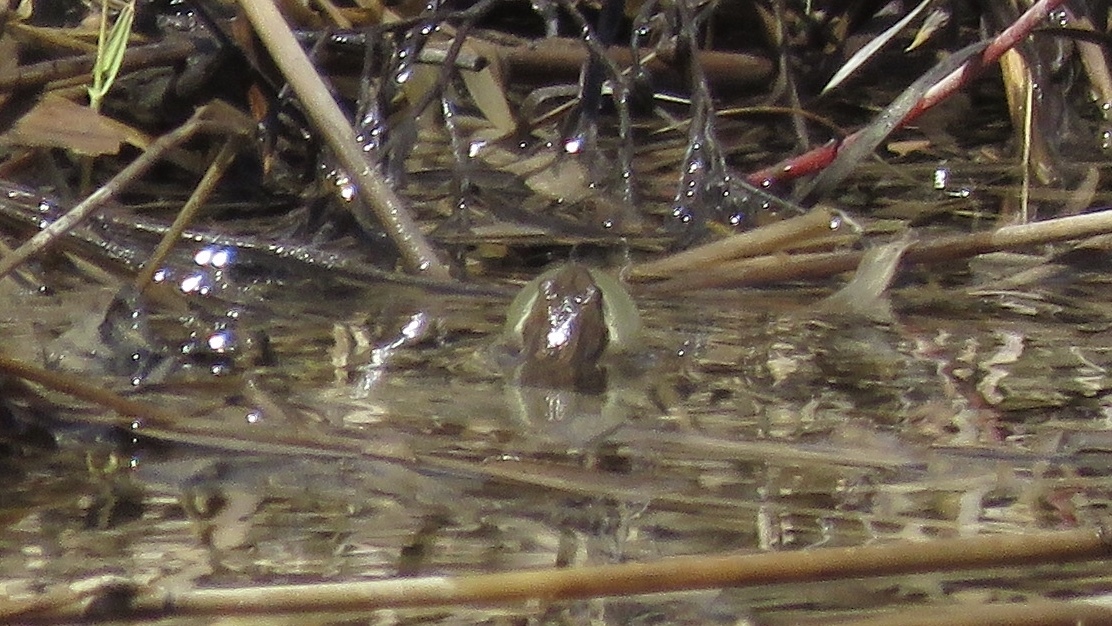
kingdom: Animalia
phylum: Chordata
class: Amphibia
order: Anura
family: Hylidae
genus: Pseudacris
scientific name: Pseudacris maculata
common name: Boreal chorus frog
